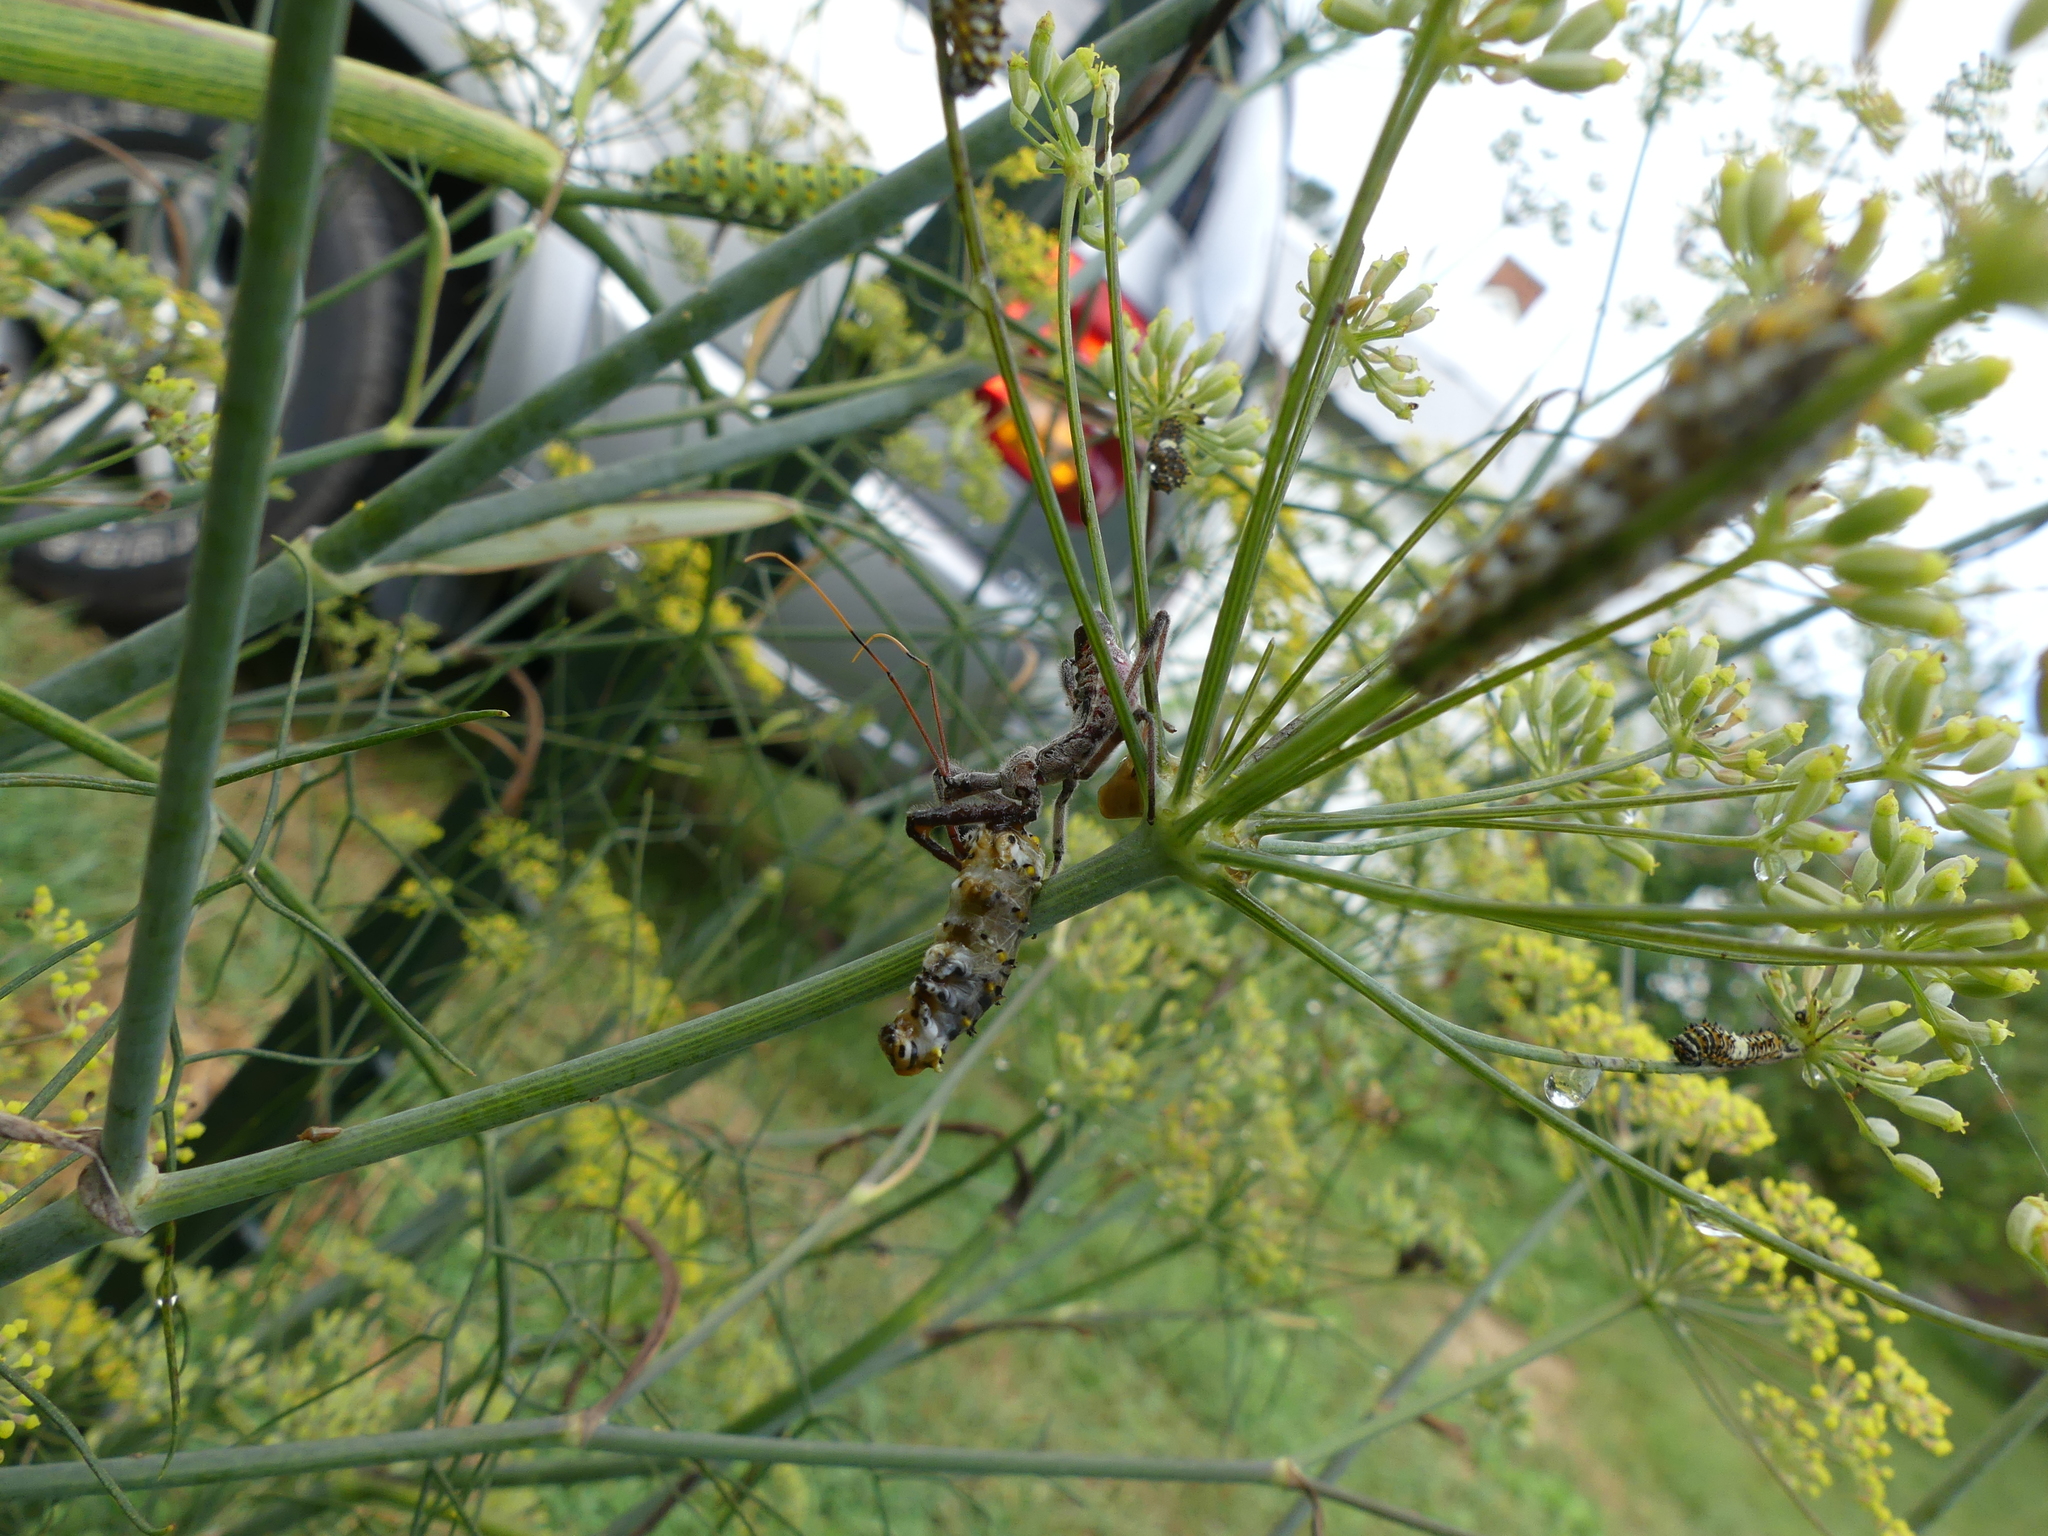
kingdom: Animalia
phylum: Arthropoda
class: Insecta
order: Lepidoptera
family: Papilionidae
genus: Papilio
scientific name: Papilio polyxenes
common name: Black swallowtail
